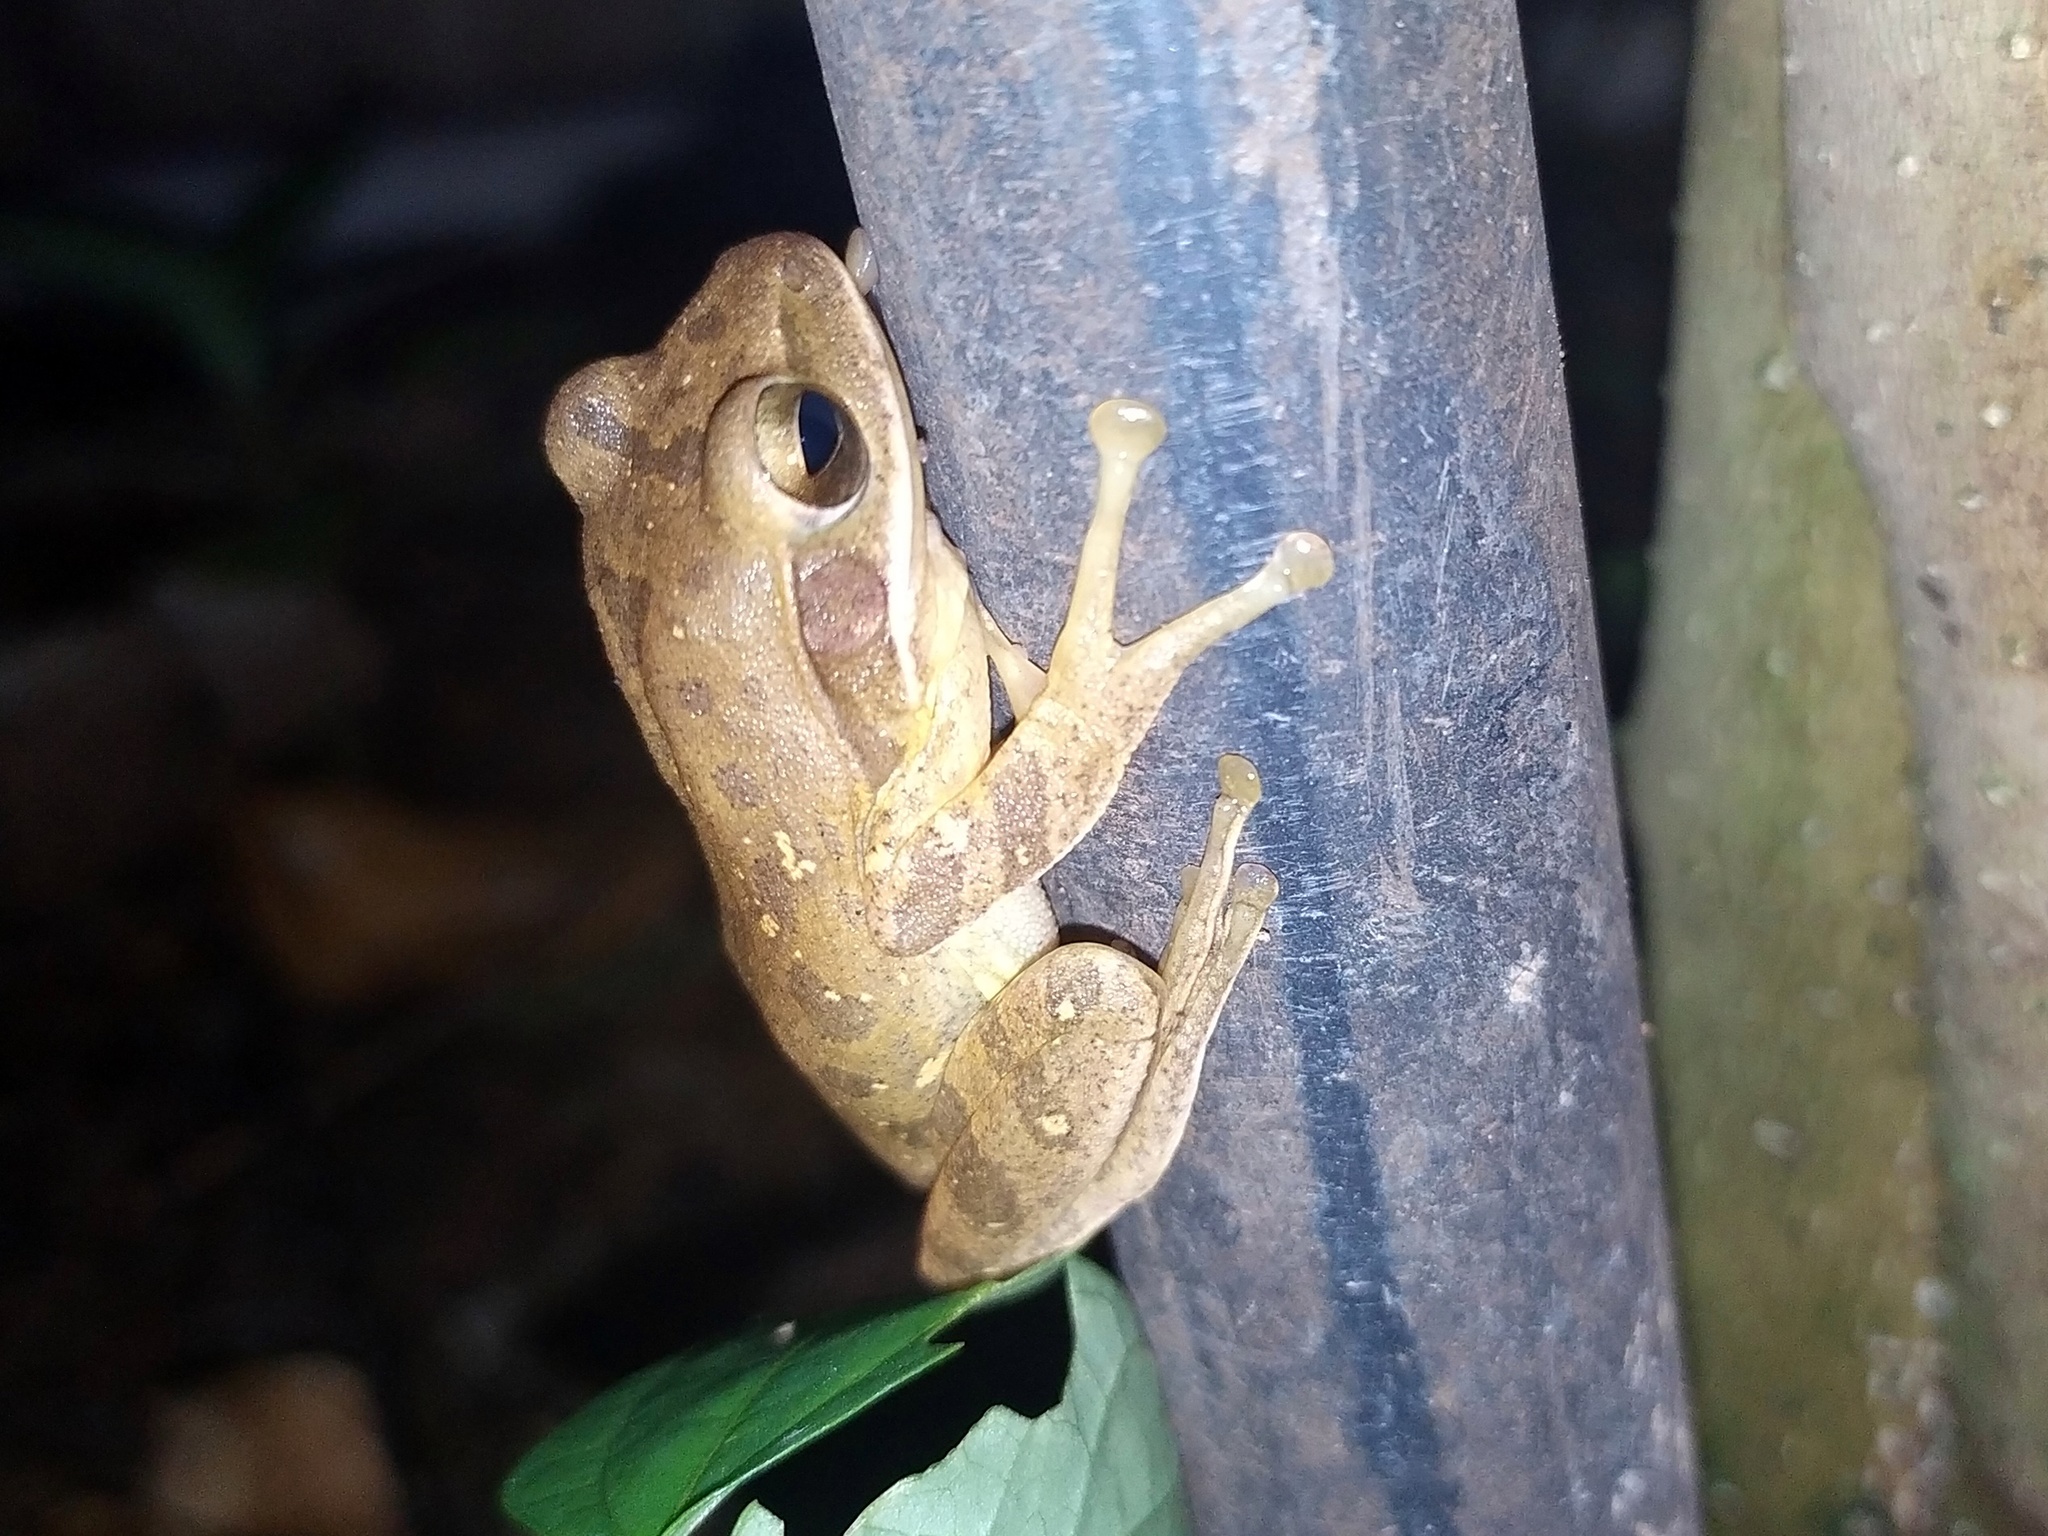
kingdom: Animalia
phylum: Chordata
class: Amphibia
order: Anura
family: Rhacophoridae
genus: Polypedates
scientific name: Polypedates maculatus
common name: Himalayan tree frog
